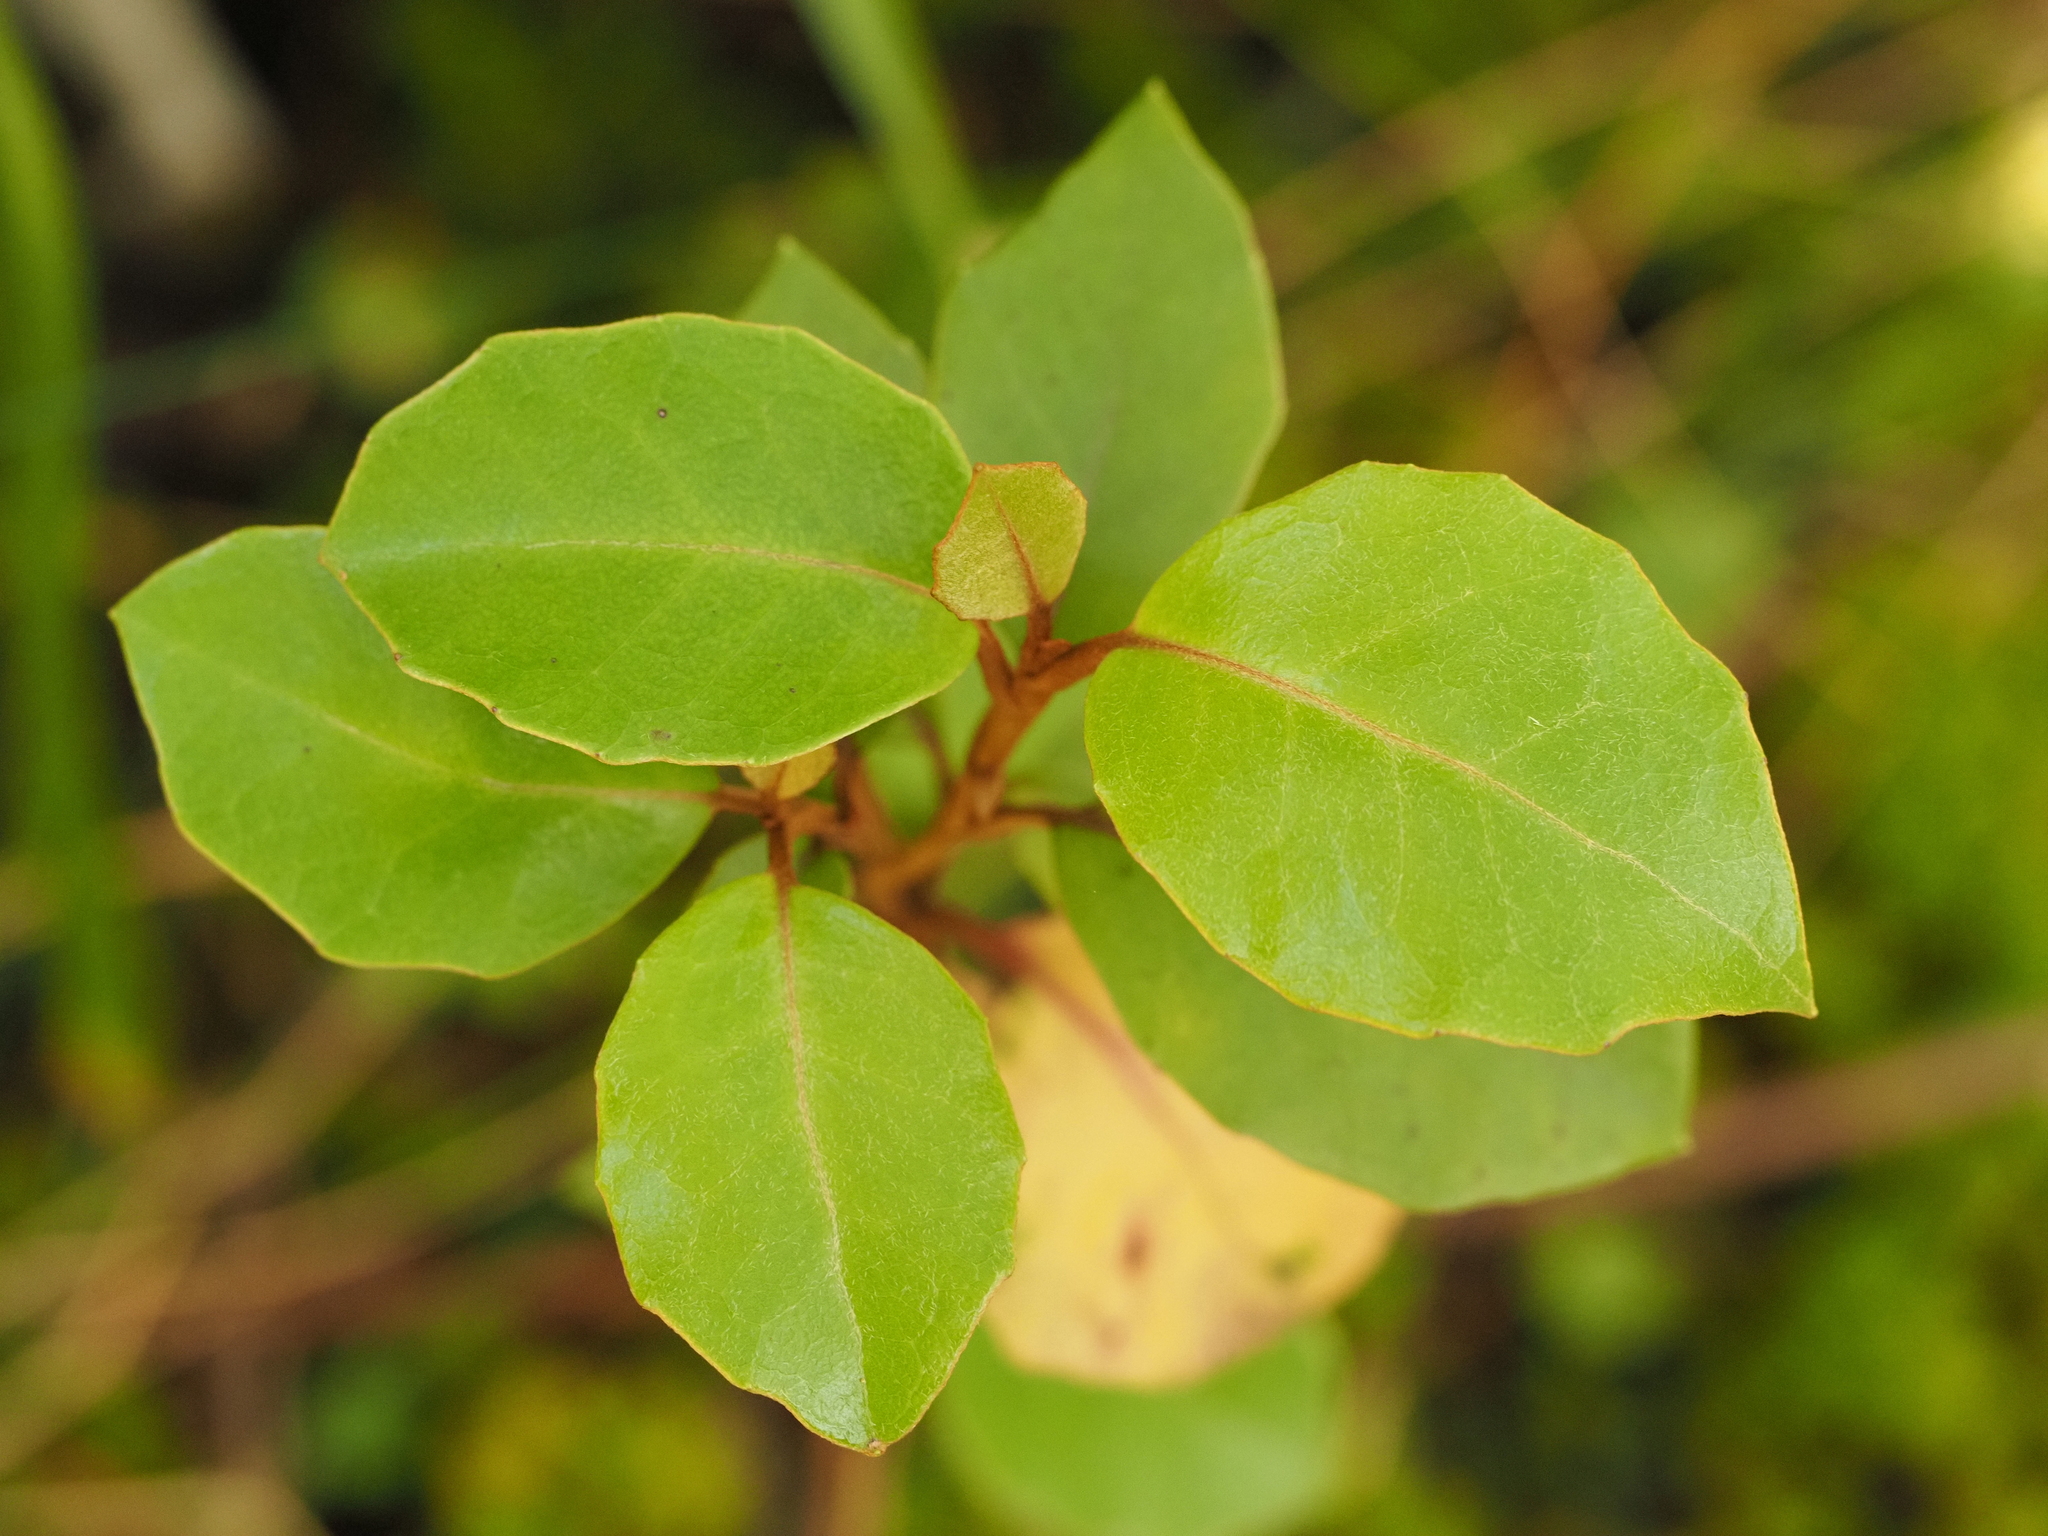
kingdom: Plantae
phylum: Tracheophyta
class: Magnoliopsida
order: Asterales
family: Asteraceae
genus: Olearia
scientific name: Olearia arborescens
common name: Glossy tree daisy
